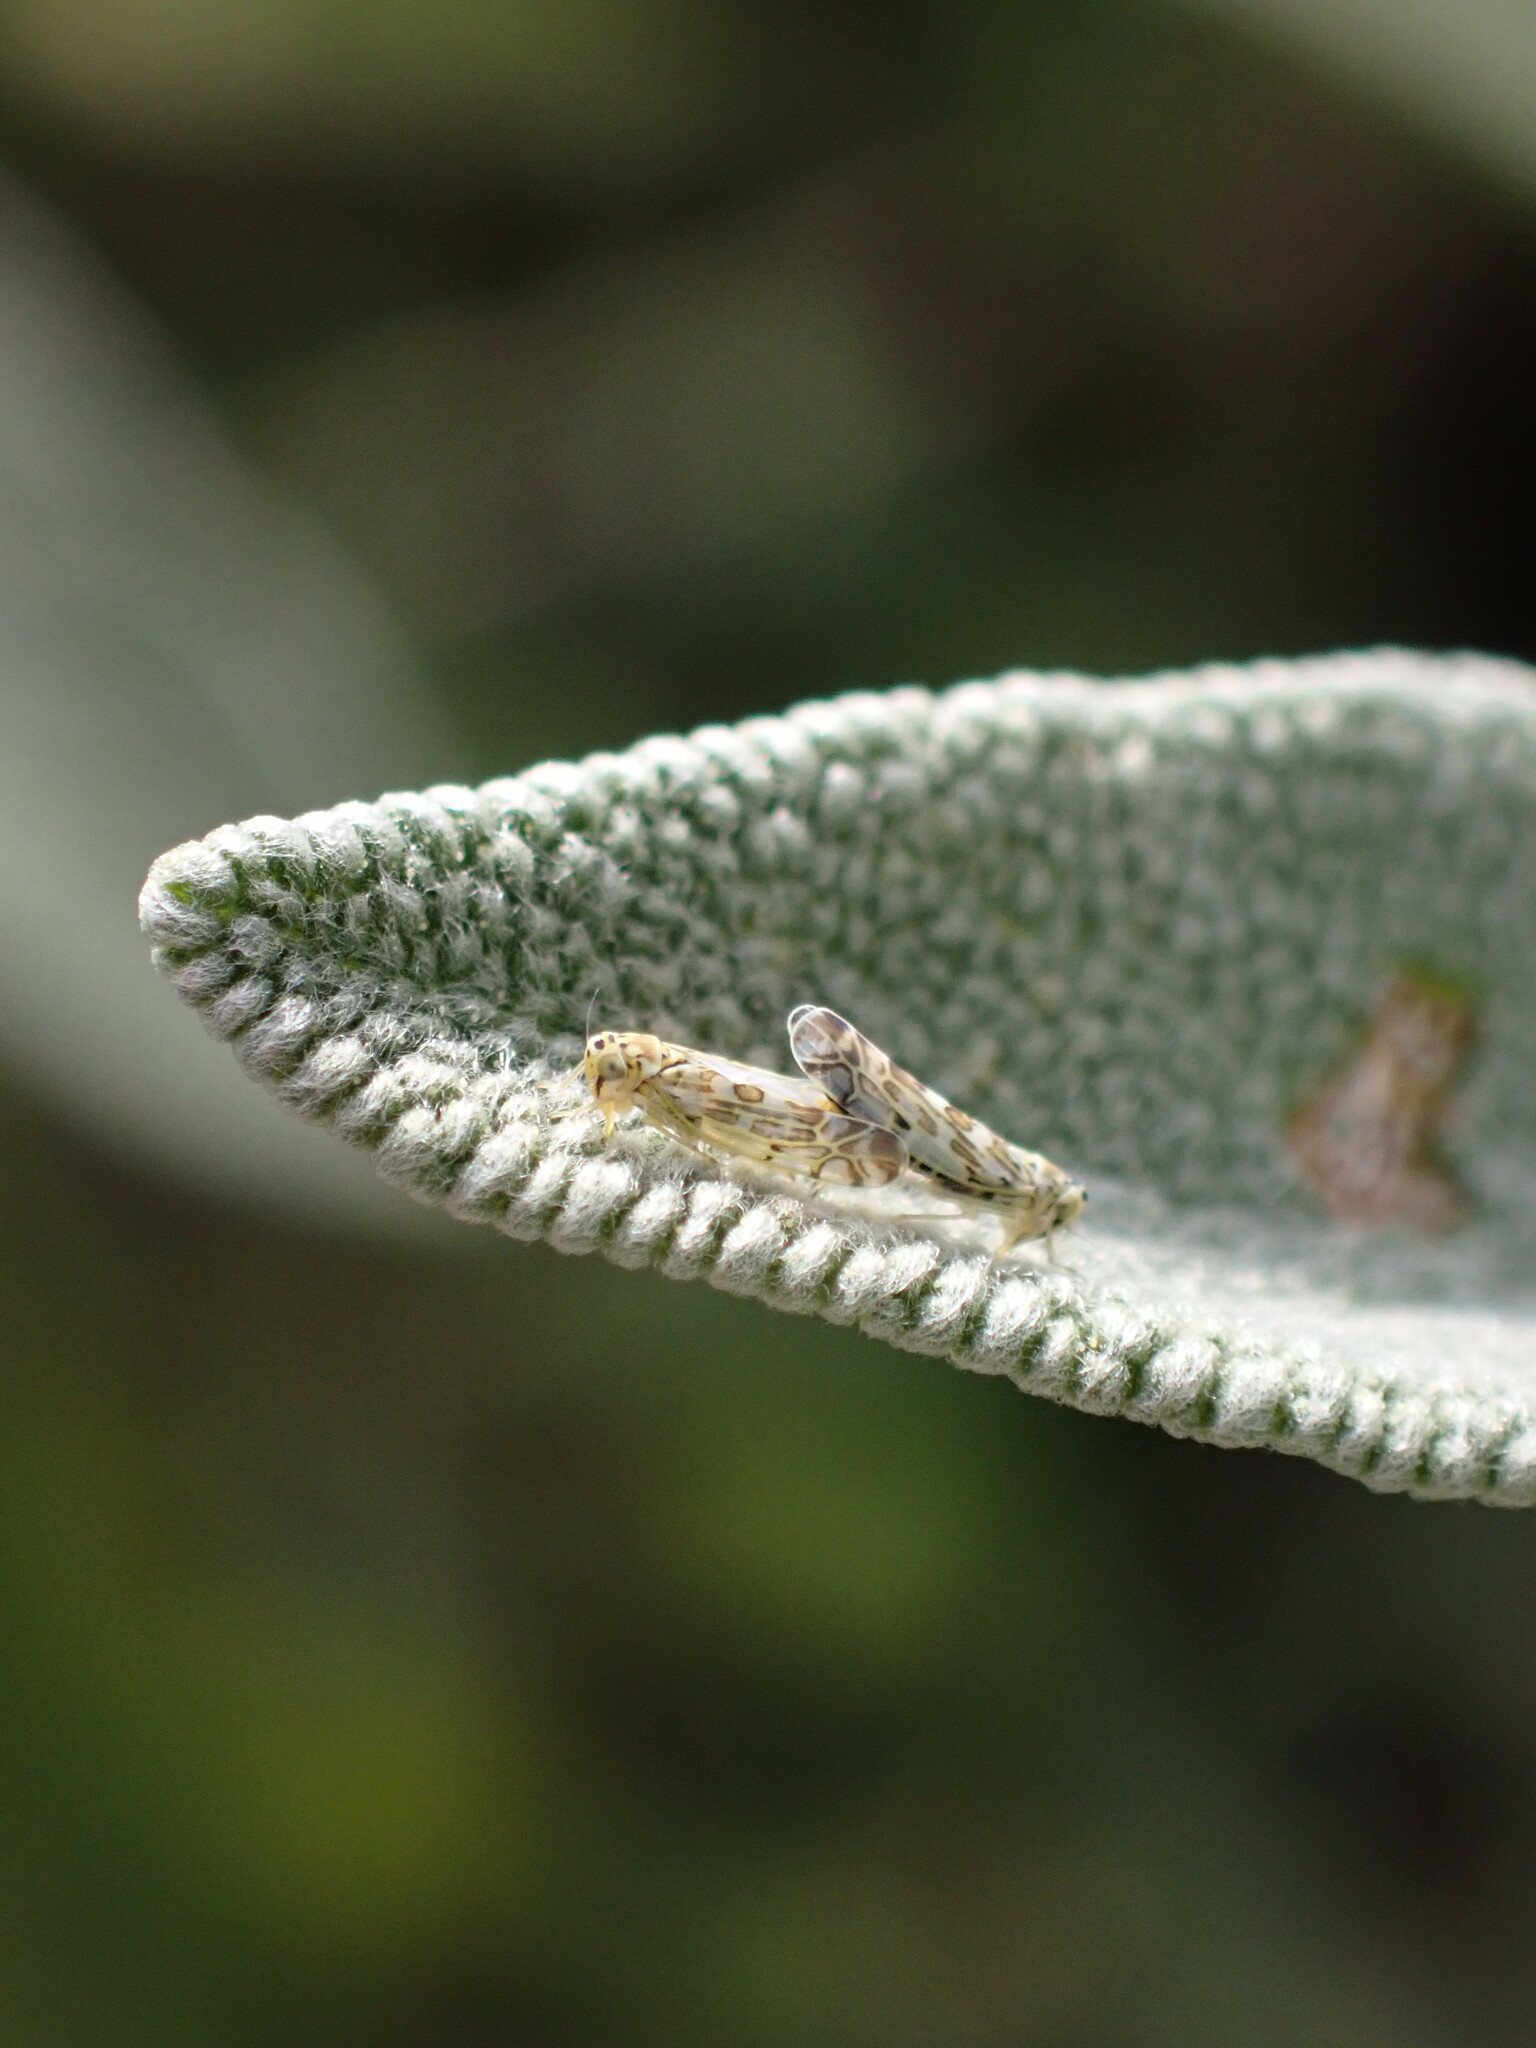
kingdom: Animalia
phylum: Arthropoda
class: Insecta
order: Hemiptera
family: Cicadellidae
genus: Eupteryx
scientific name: Eupteryx melissae
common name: Herb leafhopper
